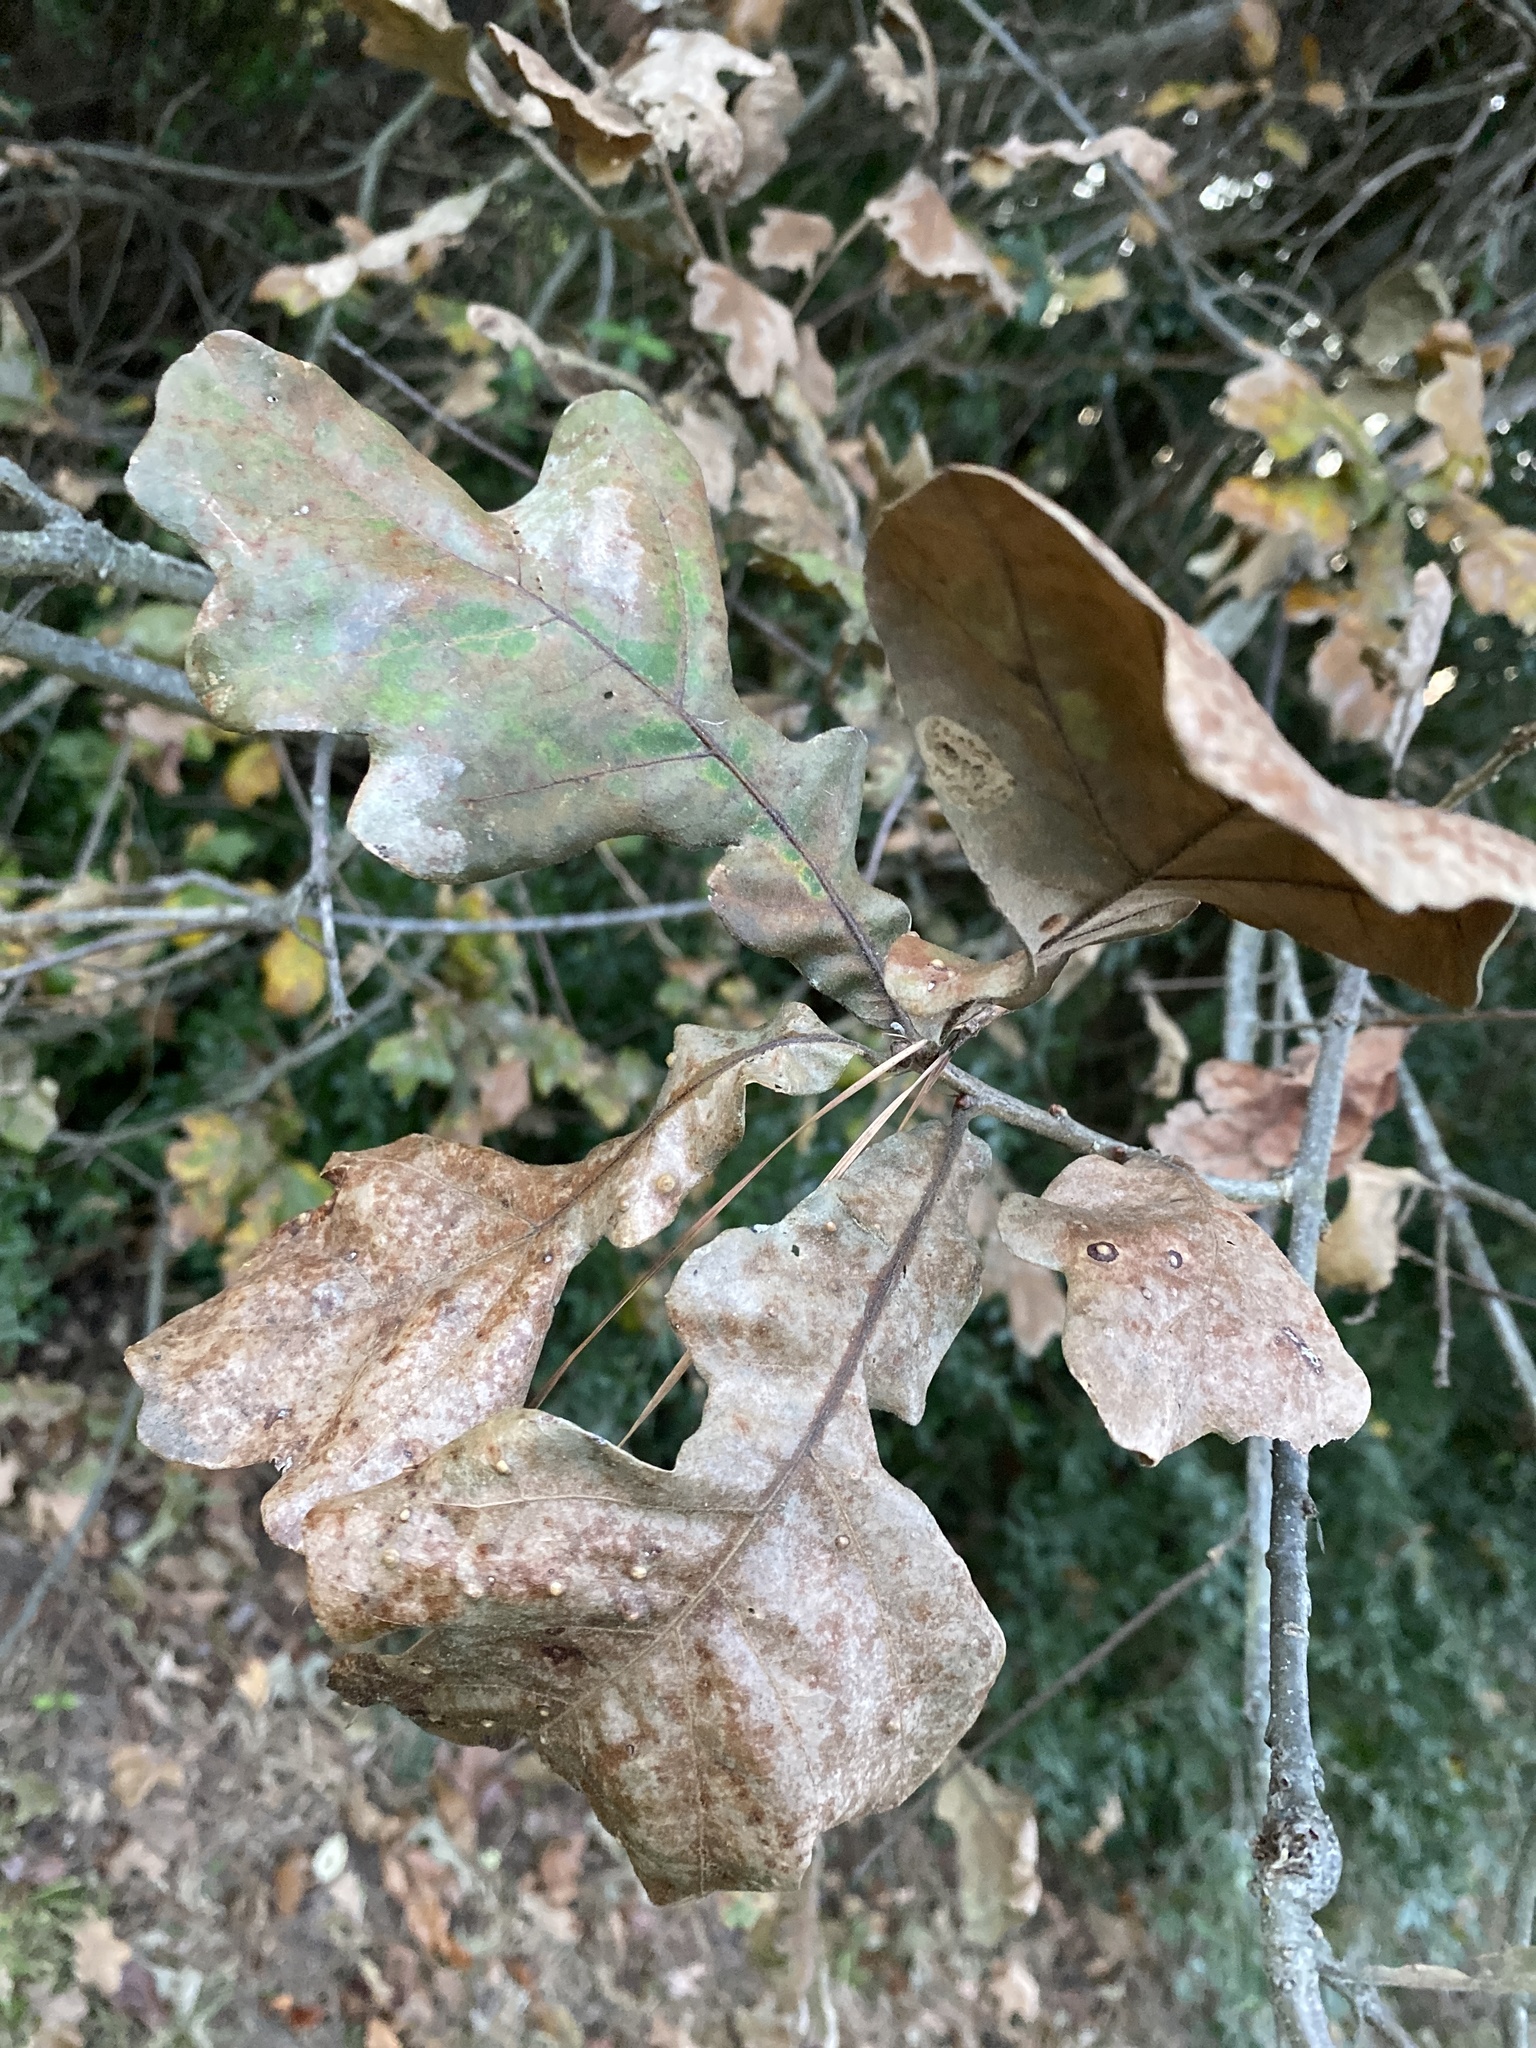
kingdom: Plantae
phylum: Tracheophyta
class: Magnoliopsida
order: Fagales
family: Fagaceae
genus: Quercus
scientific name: Quercus similis
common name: Delta post oak
